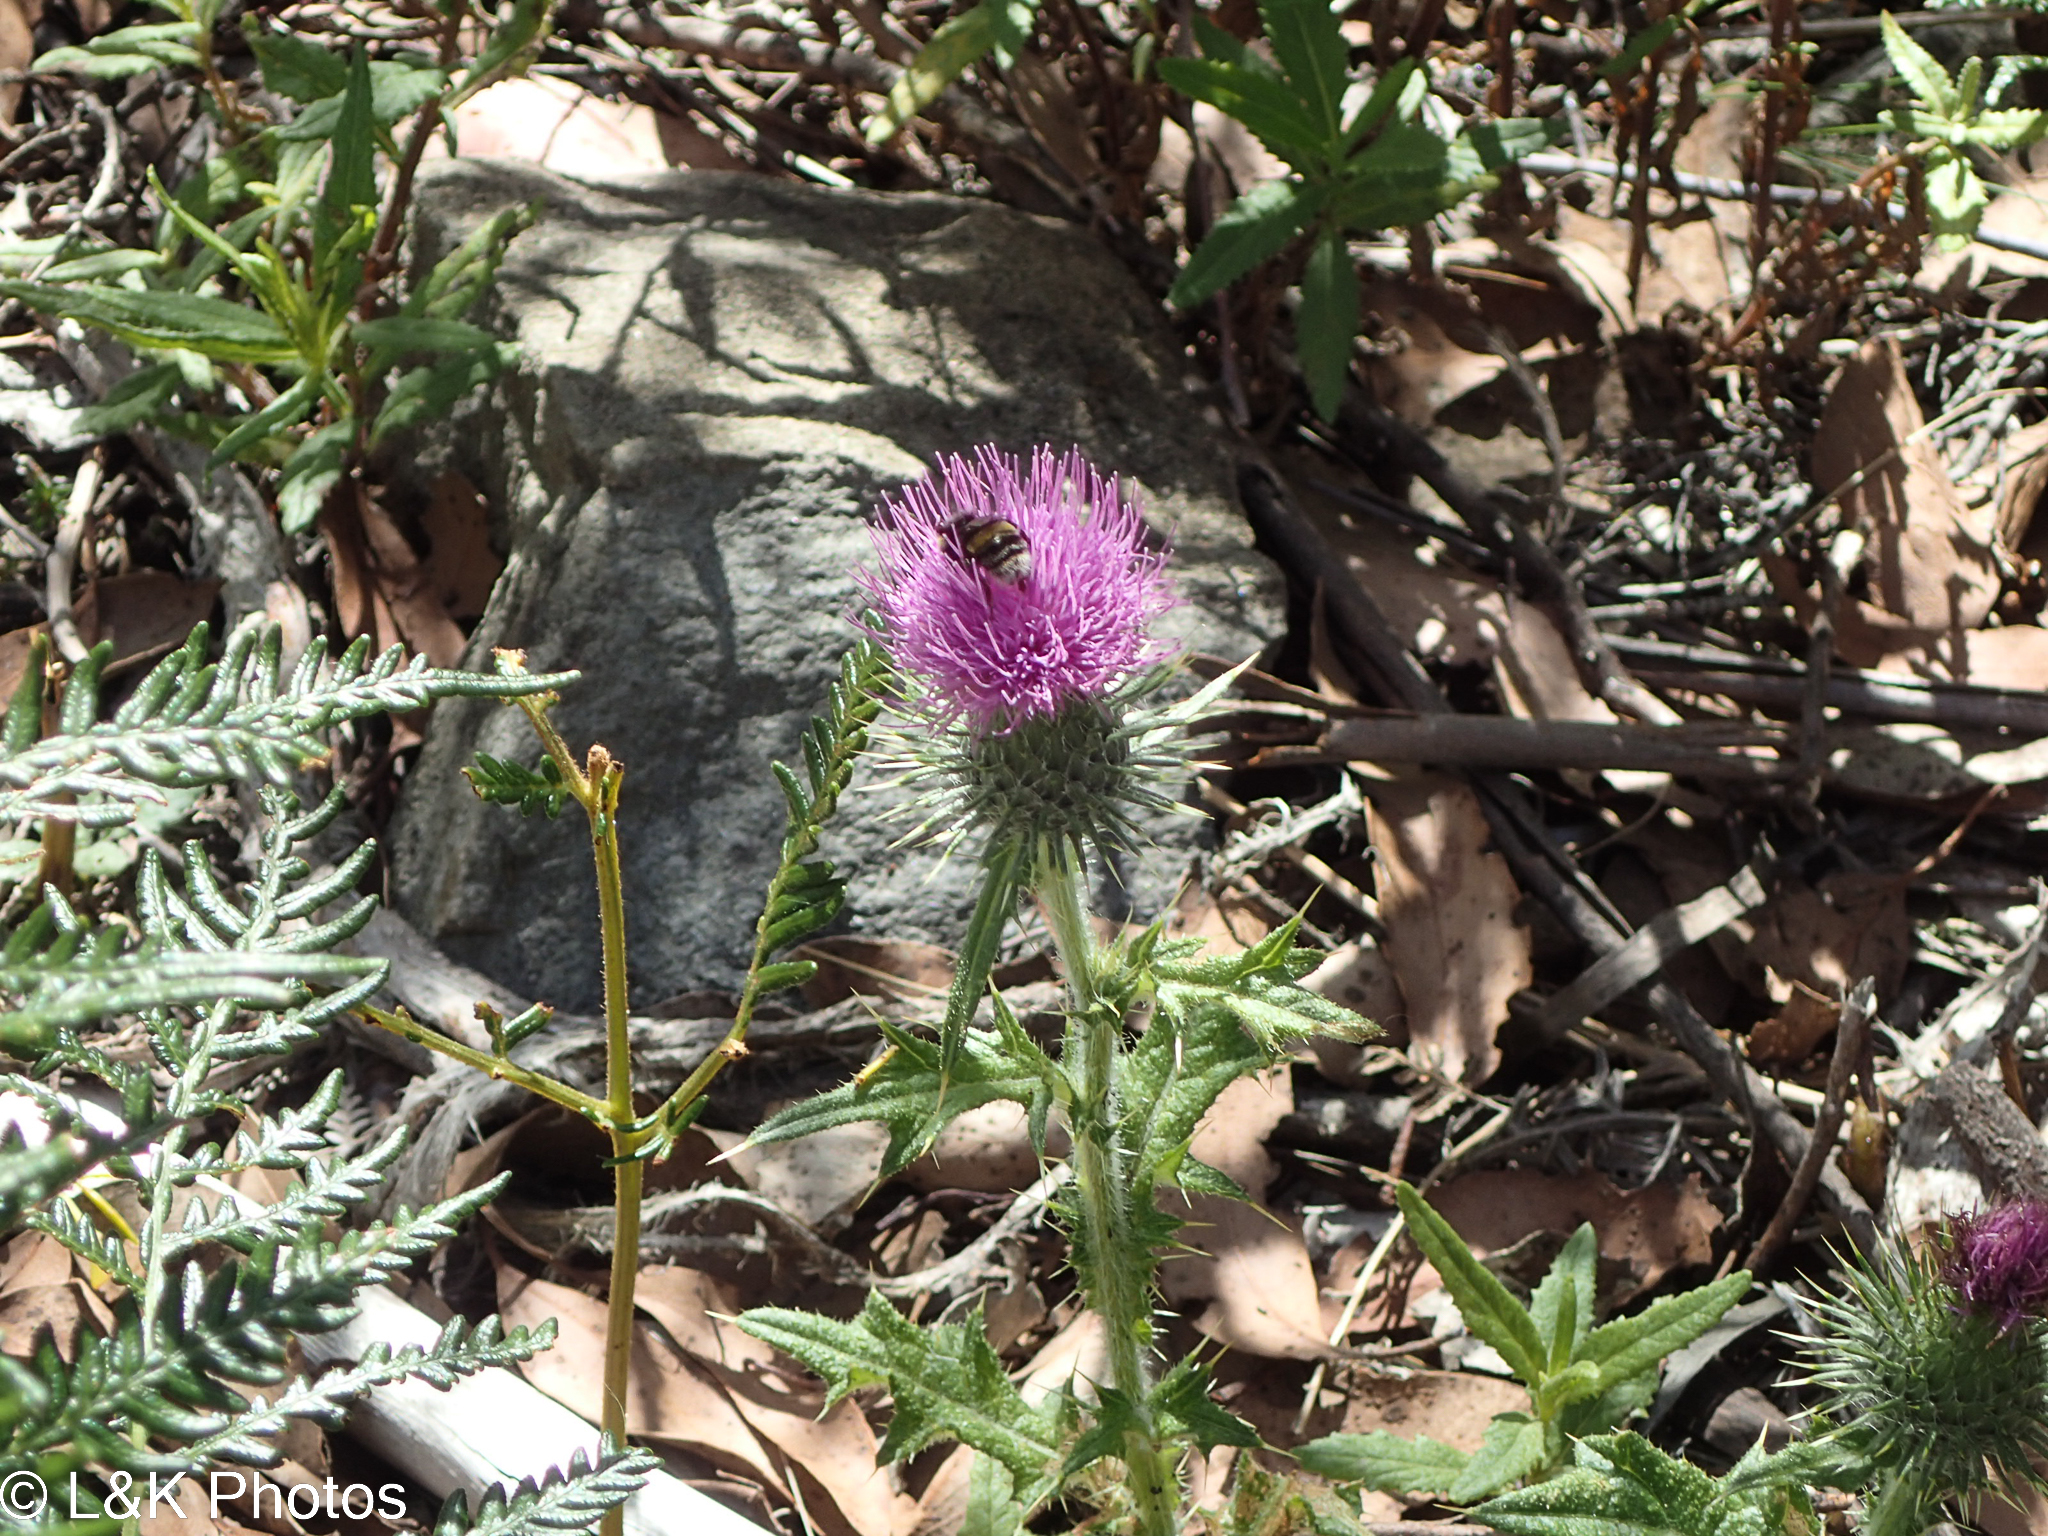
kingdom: Plantae
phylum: Tracheophyta
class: Magnoliopsida
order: Asterales
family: Asteraceae
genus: Cirsium
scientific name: Cirsium vulgare
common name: Bull thistle
